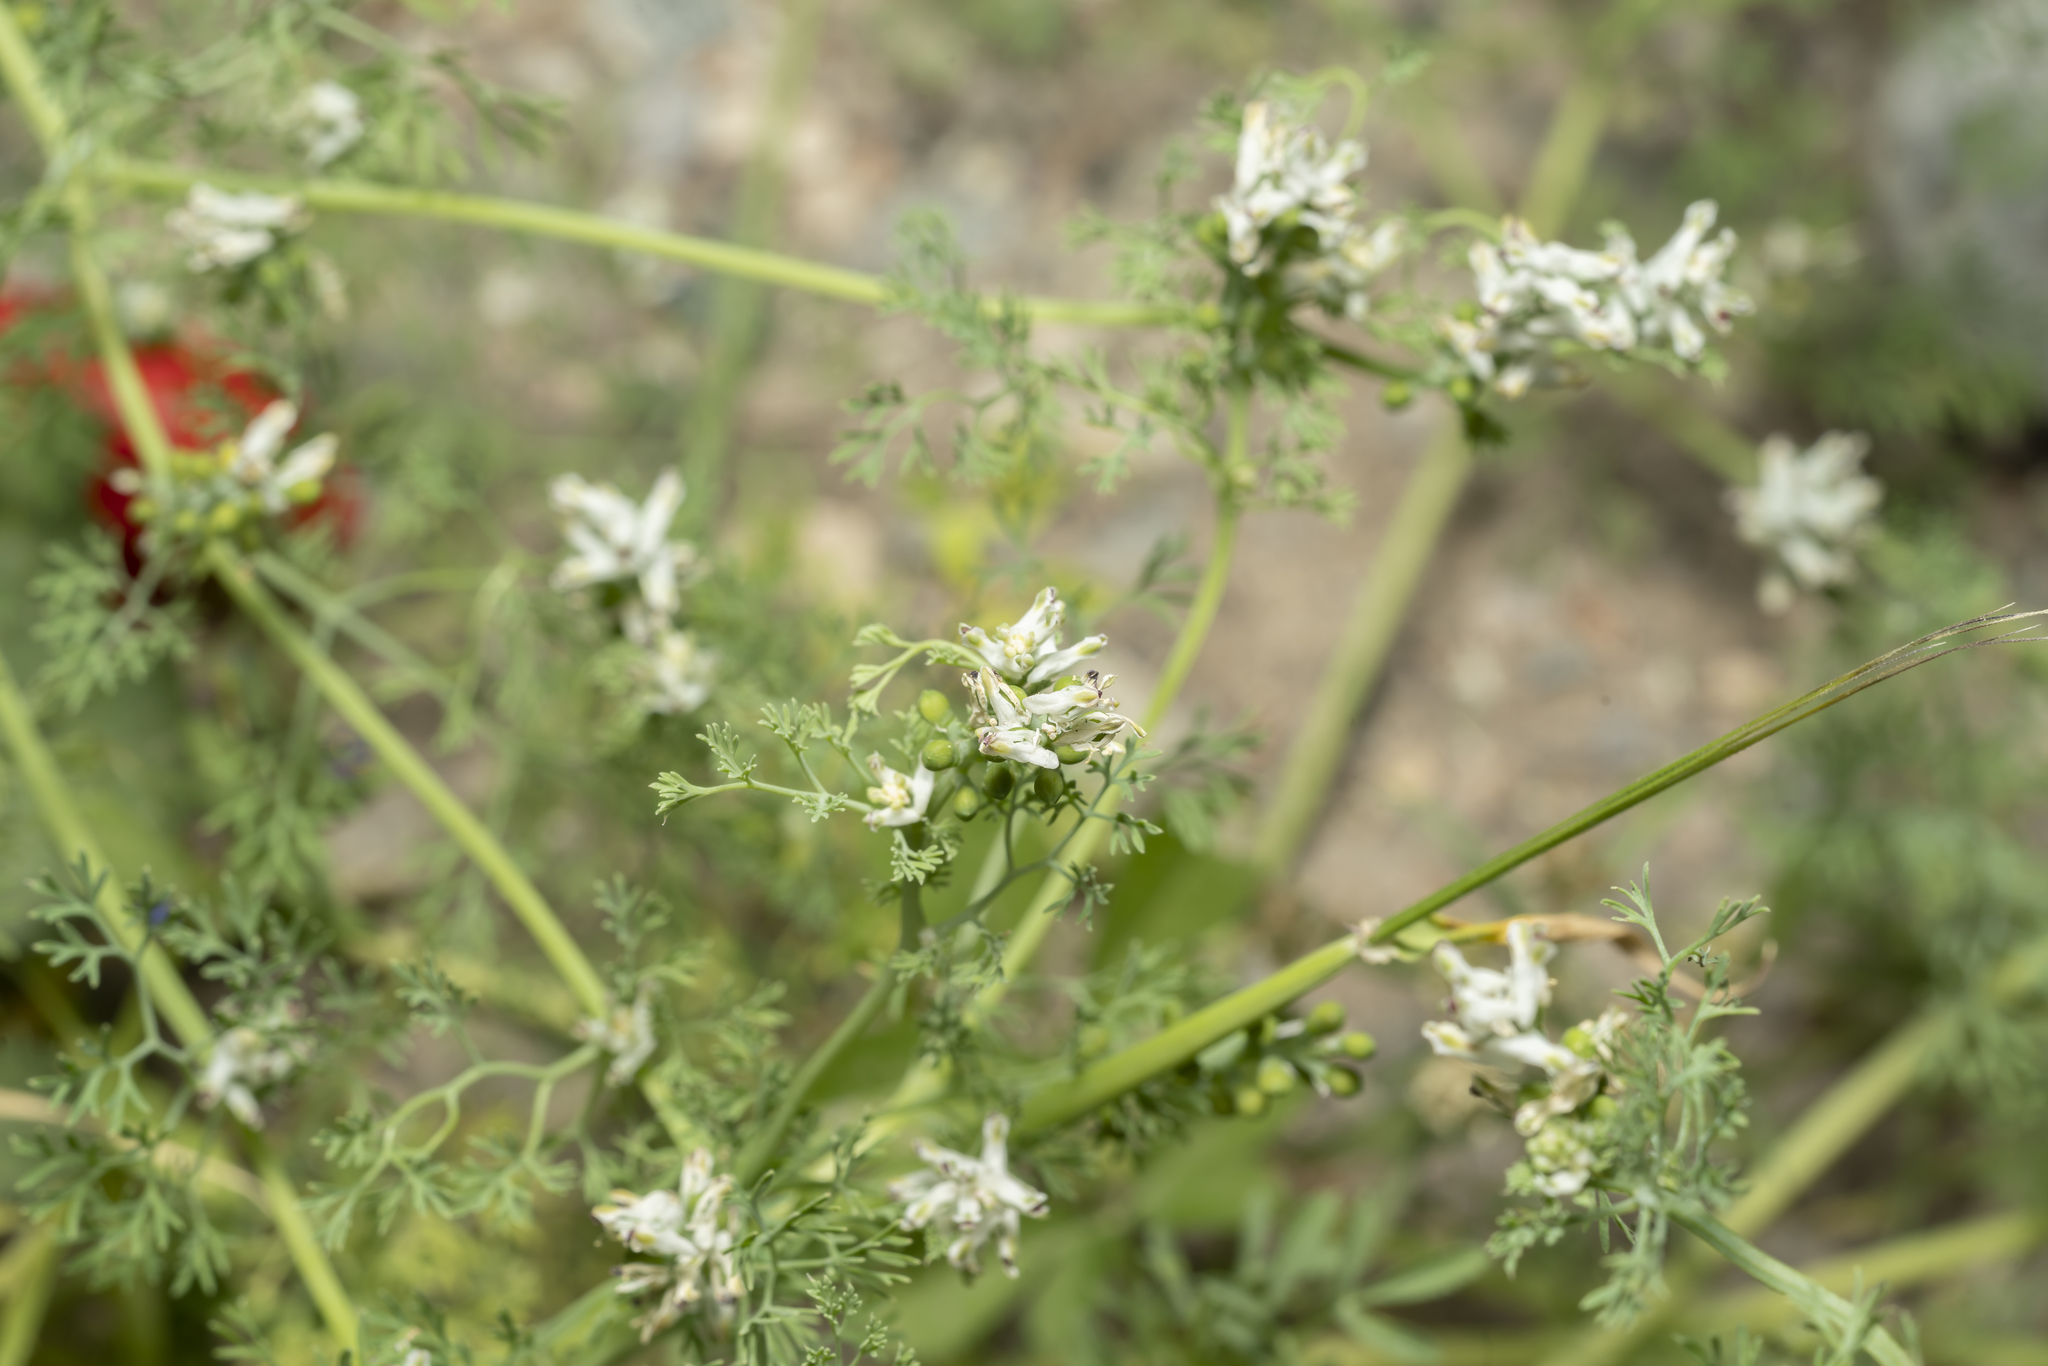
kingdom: Plantae
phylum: Tracheophyta
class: Magnoliopsida
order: Ranunculales
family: Papaveraceae
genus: Fumaria
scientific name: Fumaria parviflora
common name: Fine-leaved fumitory
